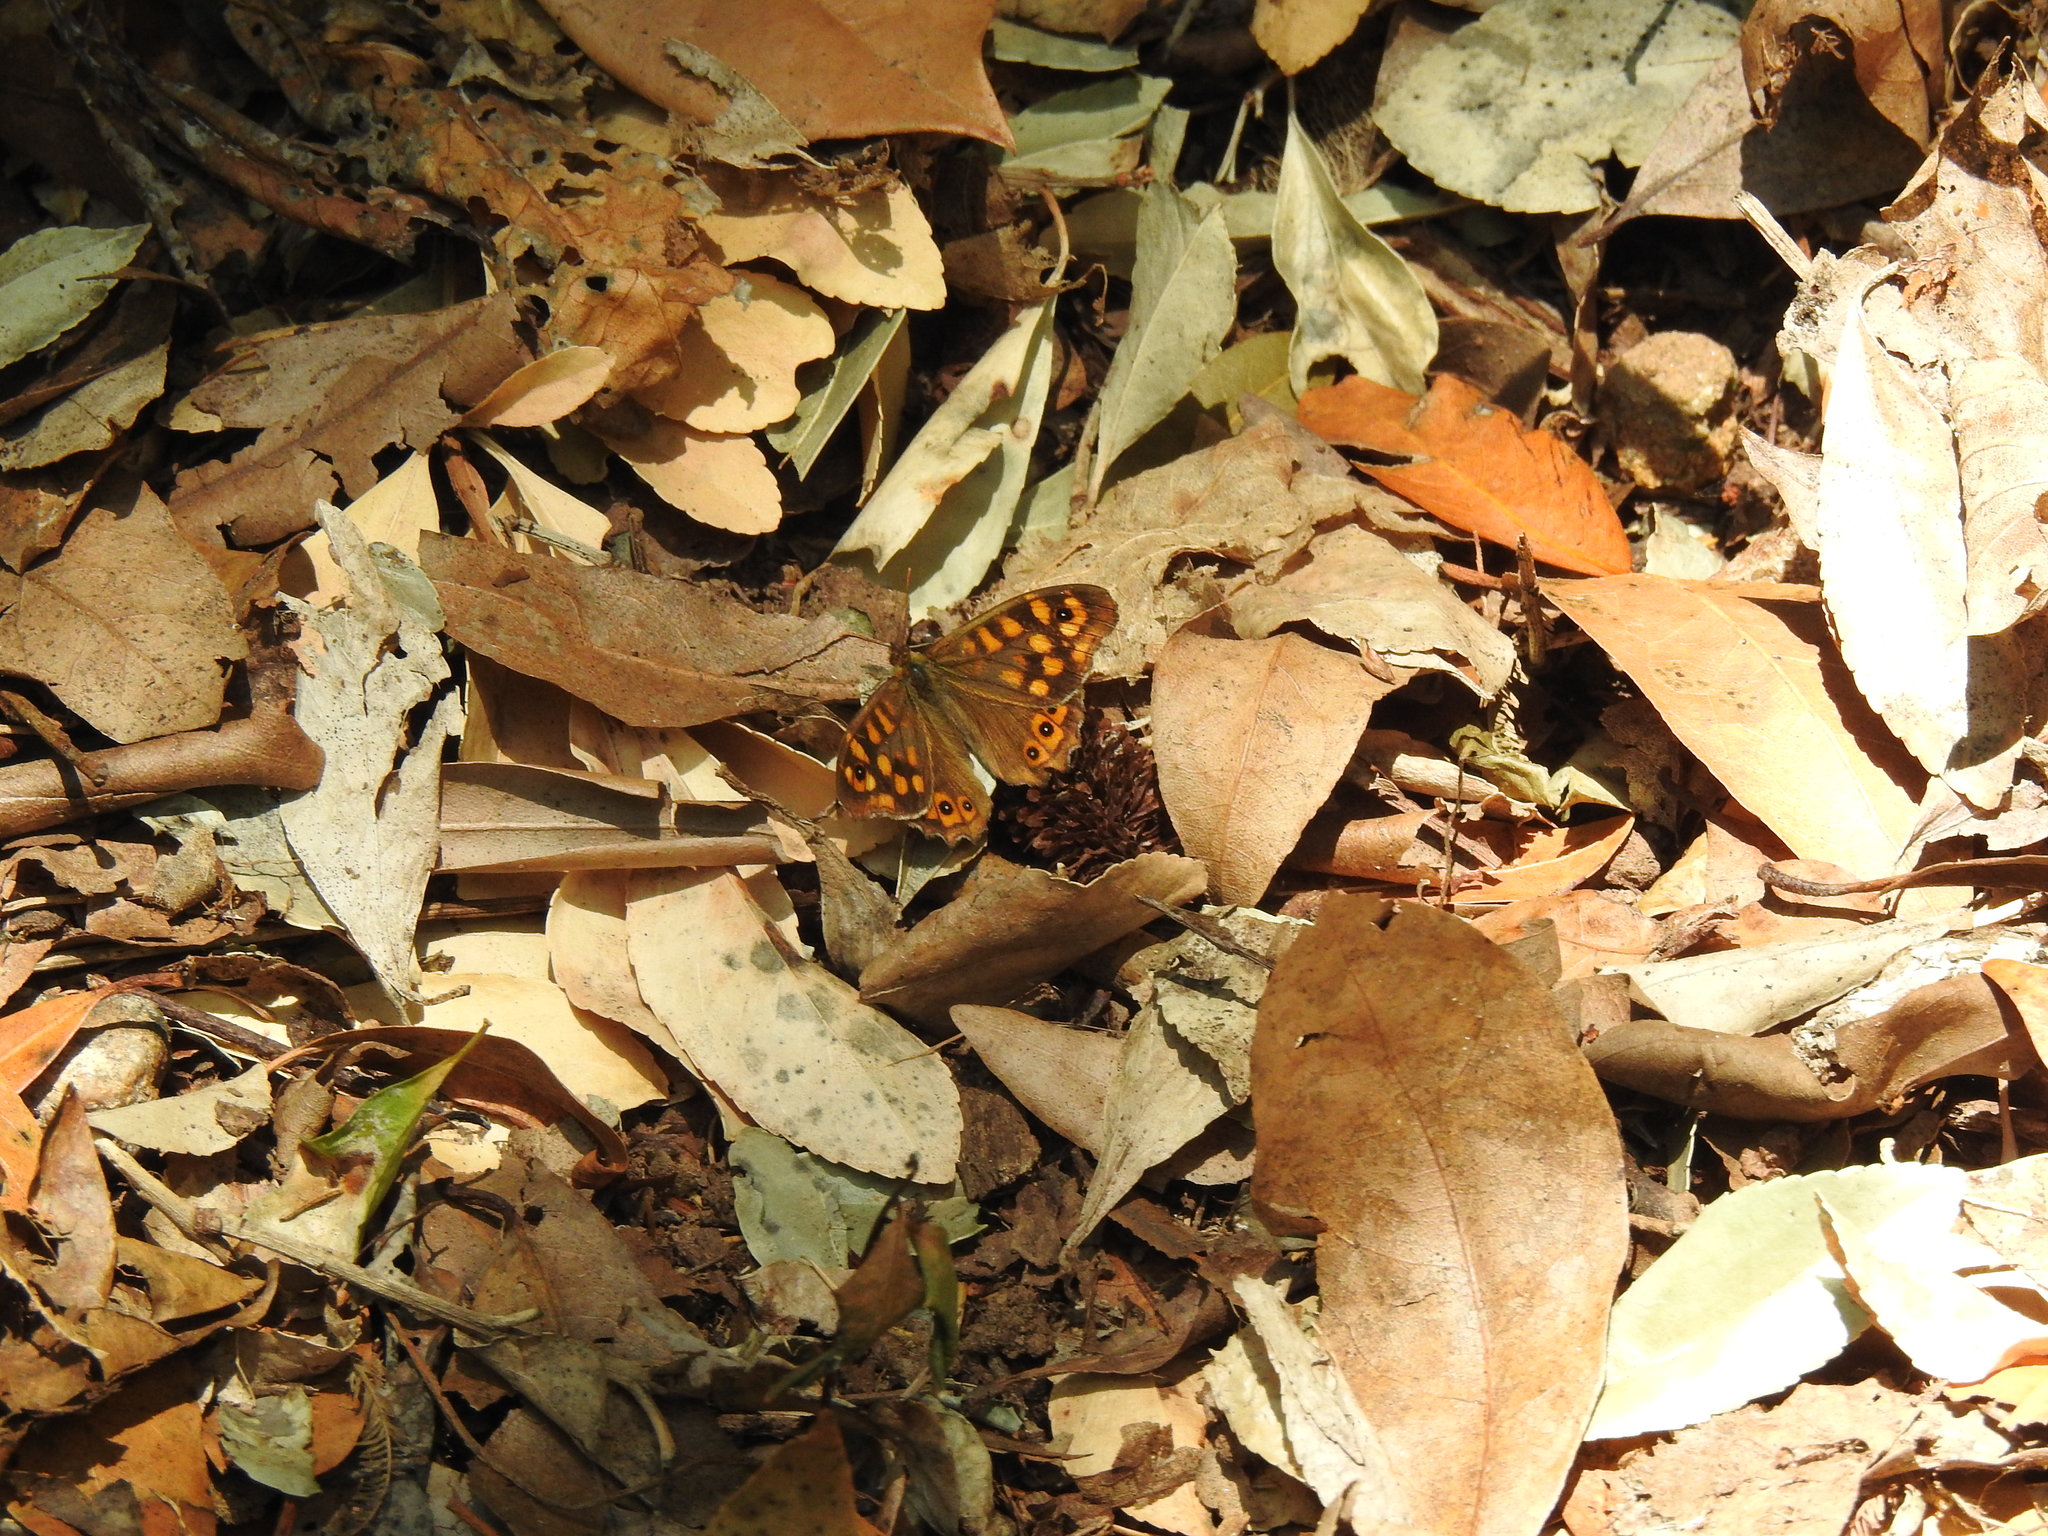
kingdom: Animalia
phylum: Arthropoda
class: Insecta
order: Lepidoptera
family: Nymphalidae
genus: Pararge
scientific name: Pararge aegeria
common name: Speckled wood
